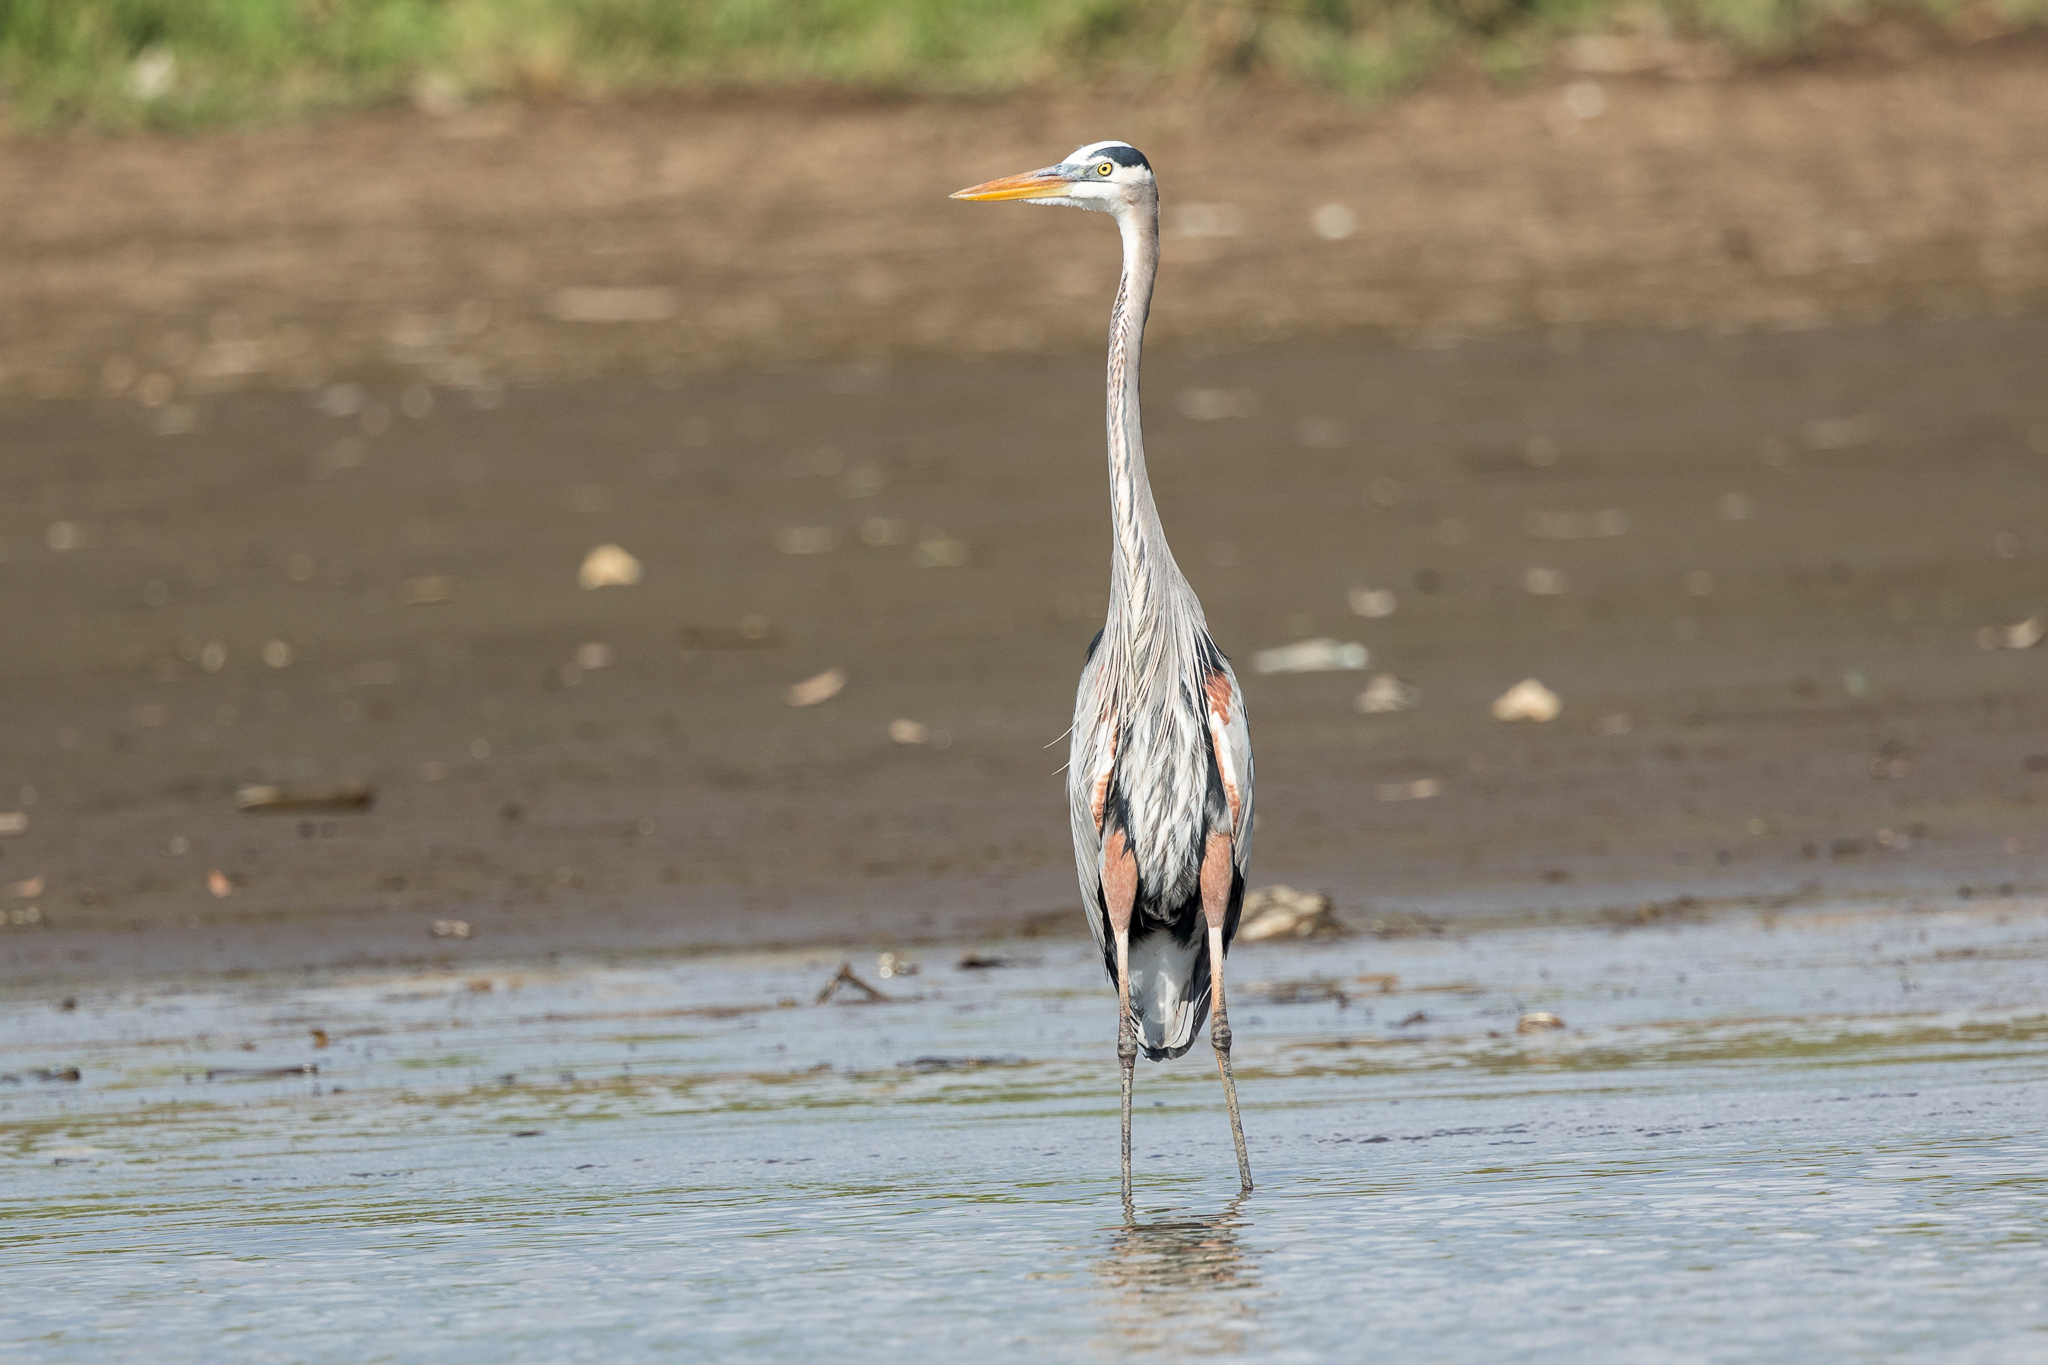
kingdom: Animalia
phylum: Chordata
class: Aves
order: Pelecaniformes
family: Ardeidae
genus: Ardea
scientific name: Ardea herodias
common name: Great blue heron
